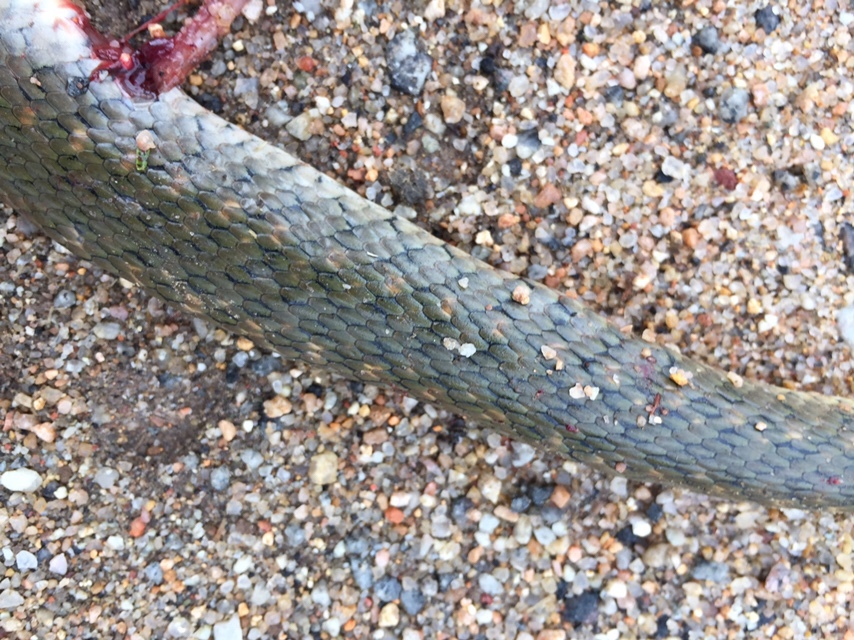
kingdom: Animalia
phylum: Chordata
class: Squamata
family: Colubridae
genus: Fowlea
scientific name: Fowlea piscator
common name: Asiatic water snake
